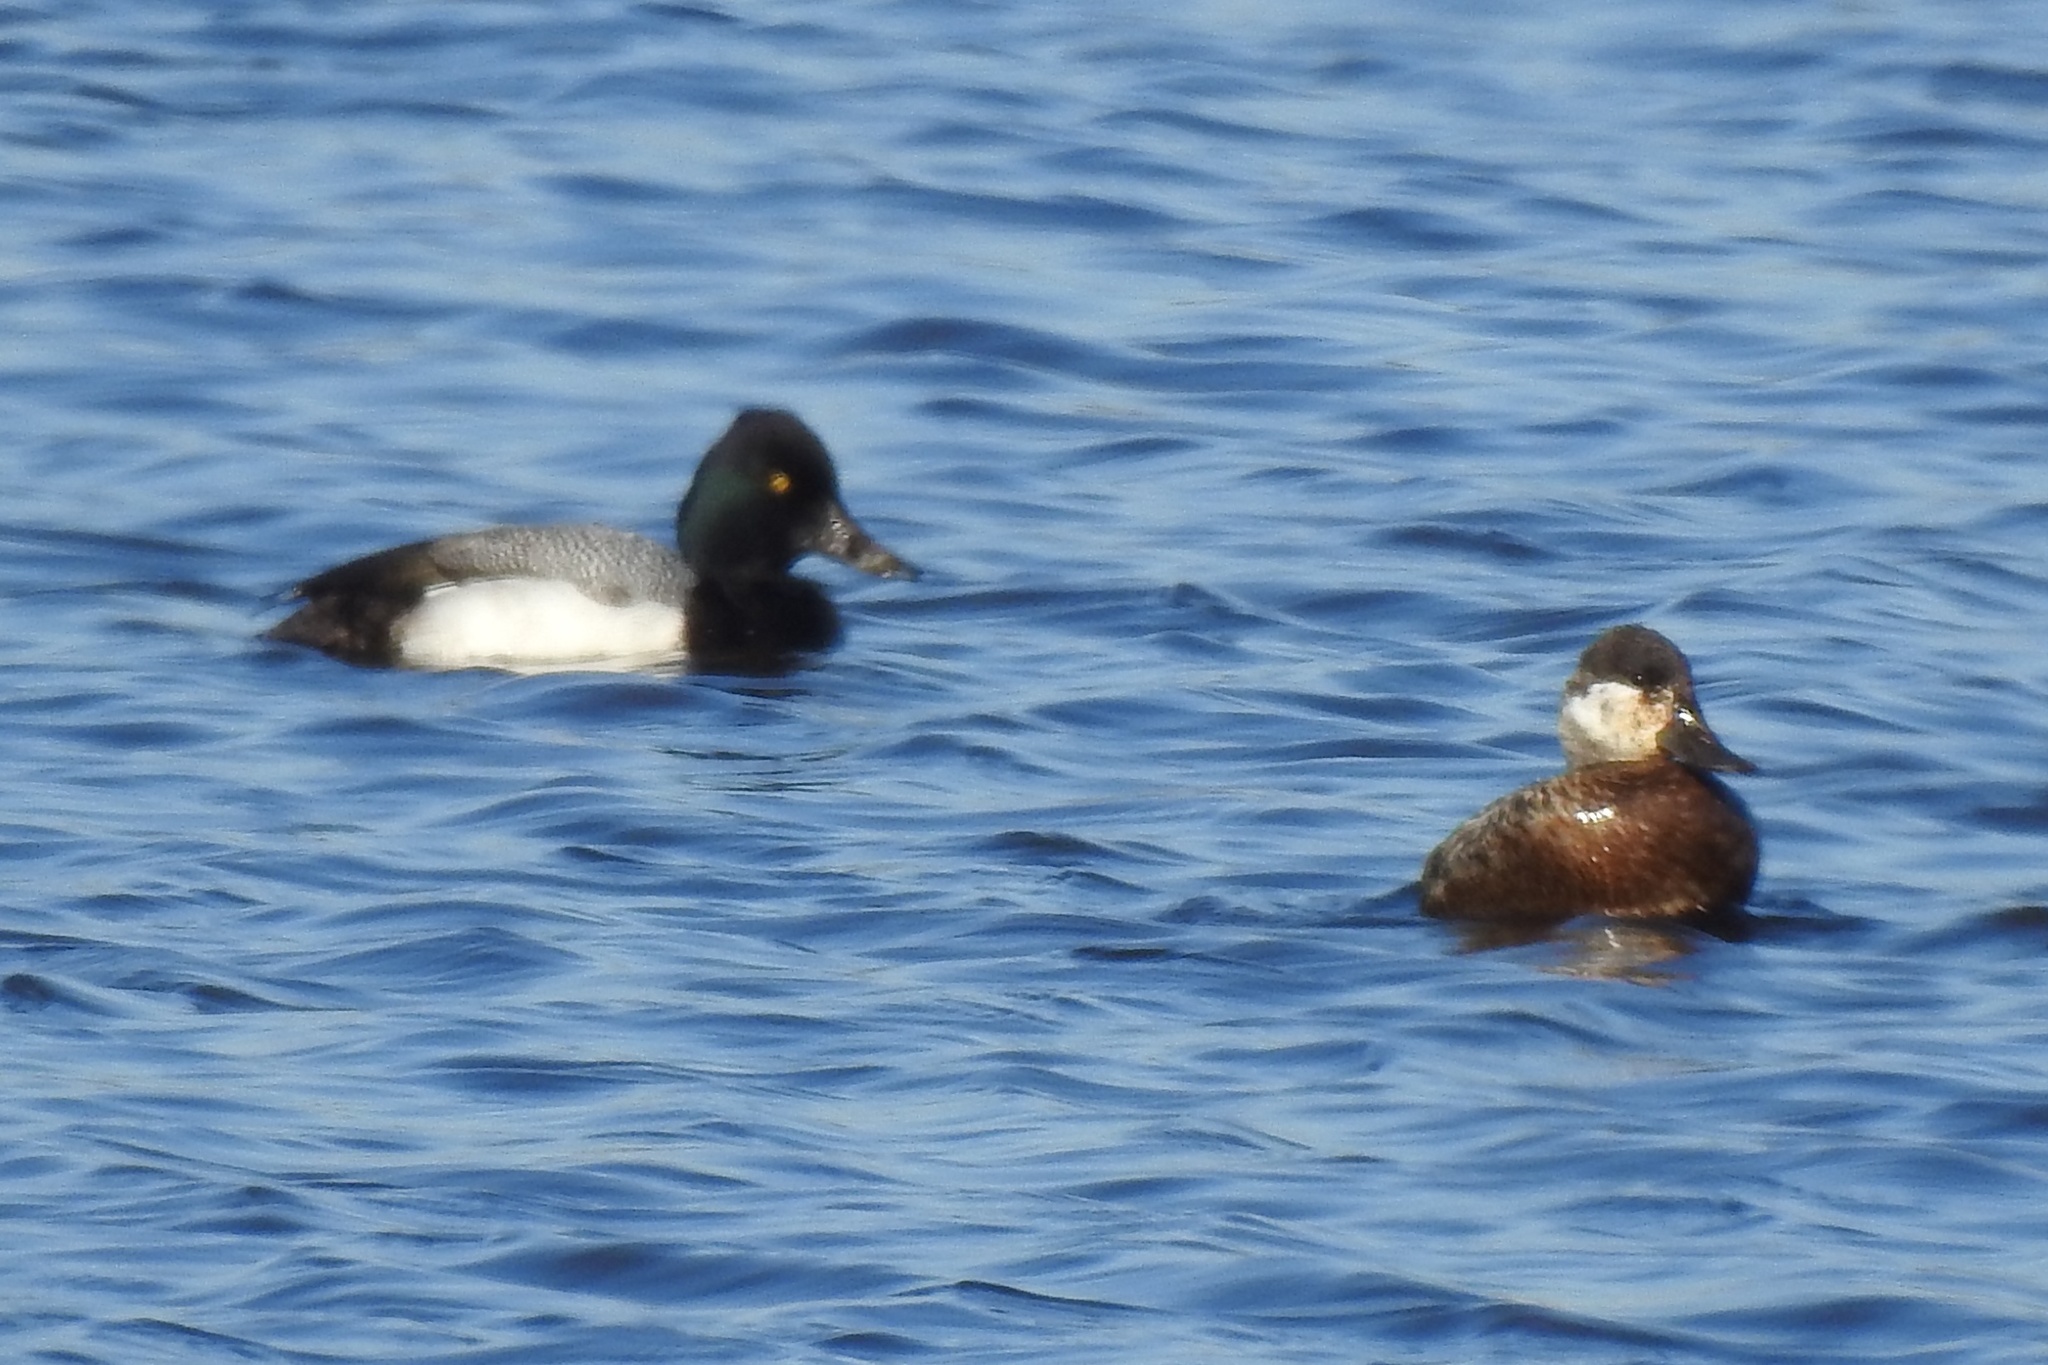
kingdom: Animalia
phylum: Chordata
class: Aves
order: Anseriformes
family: Anatidae
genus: Aythya
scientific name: Aythya affinis
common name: Lesser scaup
